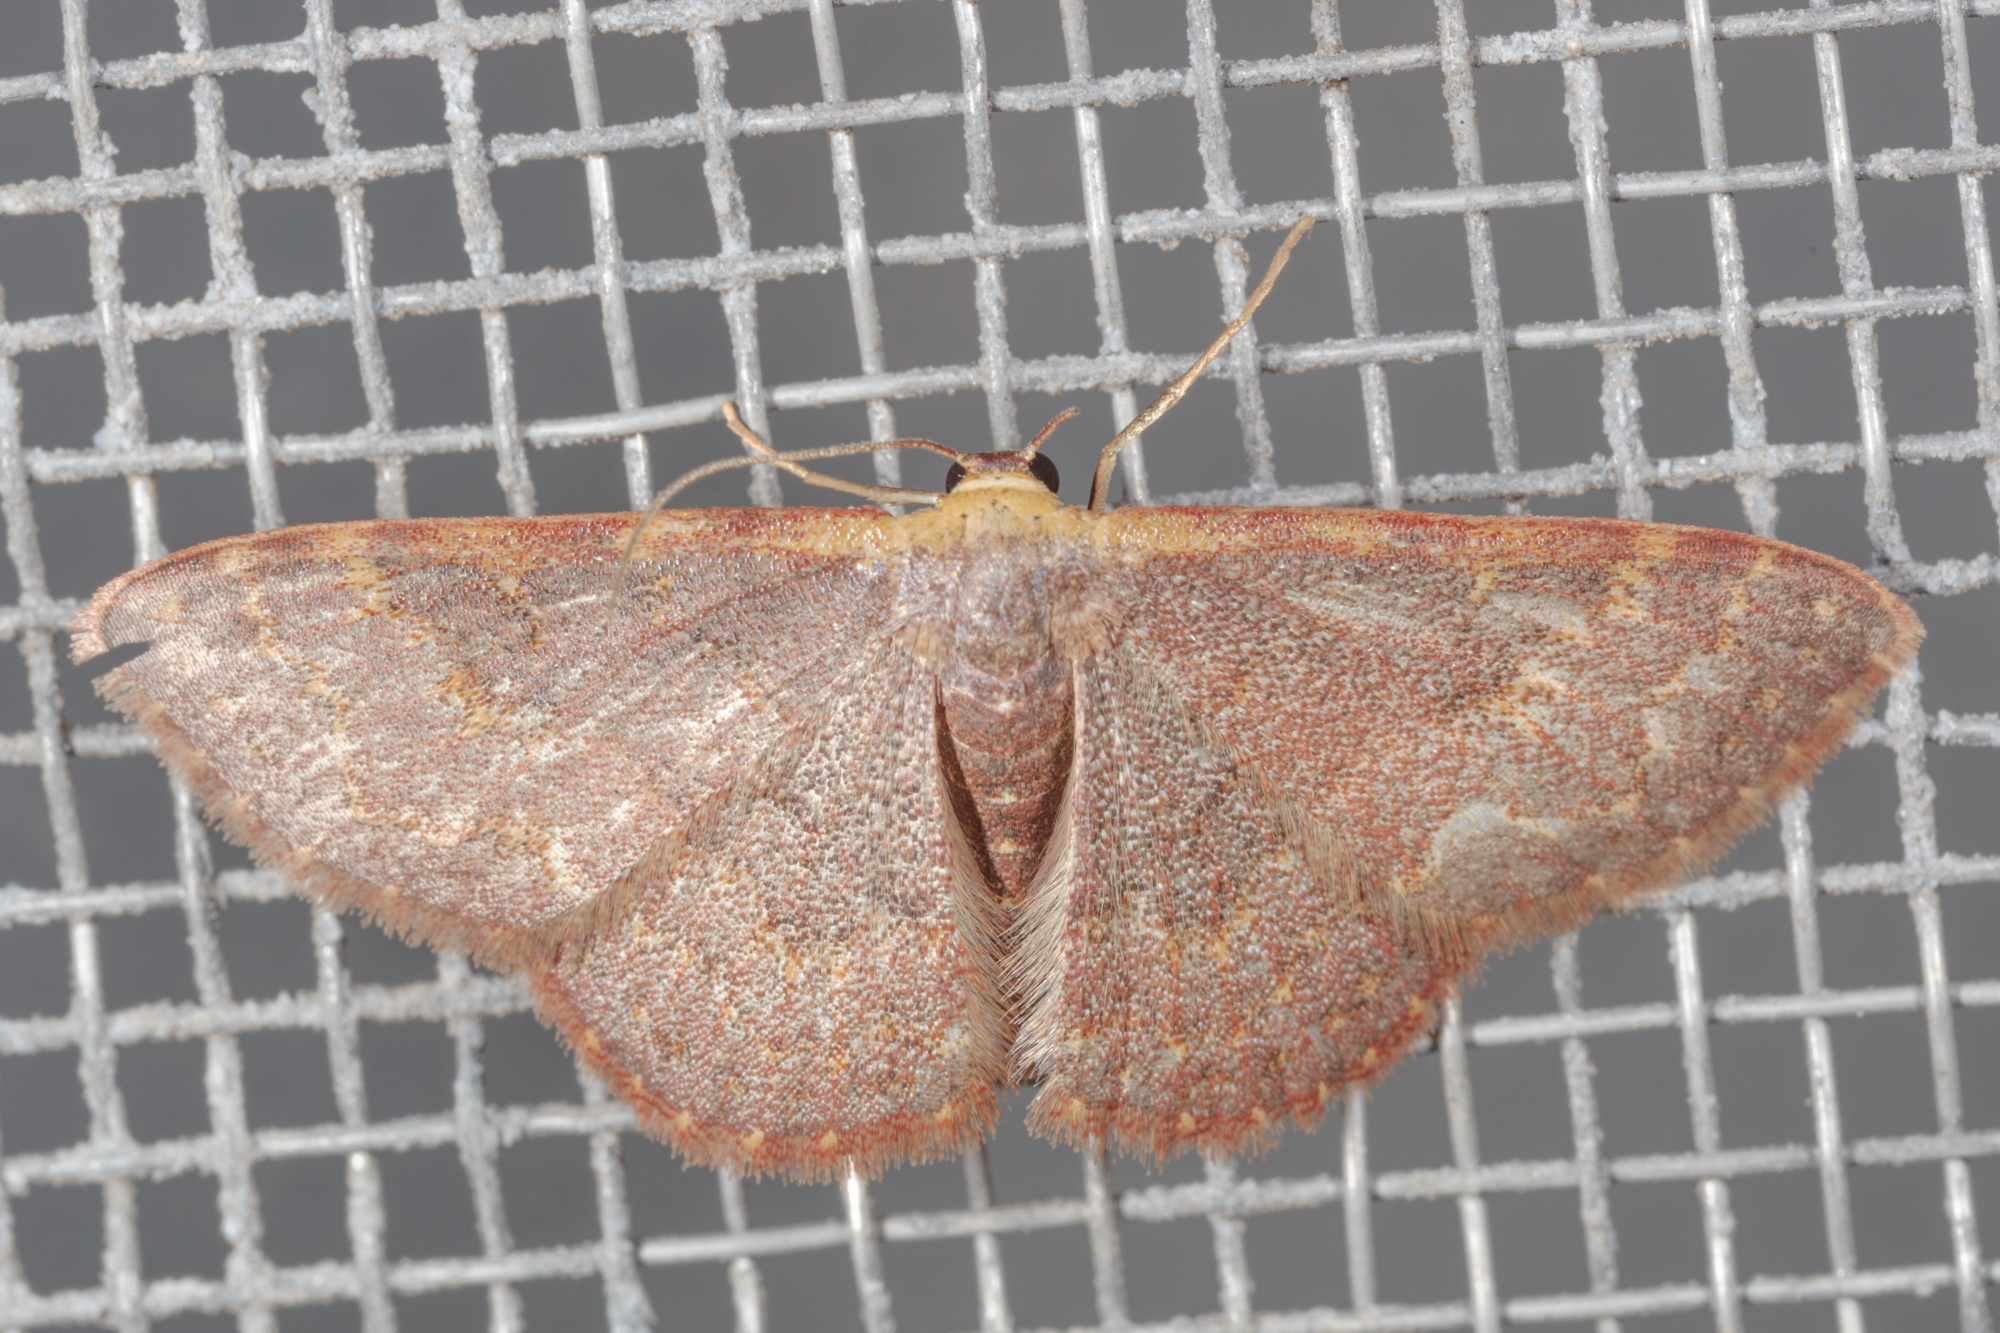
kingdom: Animalia
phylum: Arthropoda
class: Insecta
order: Lepidoptera
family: Geometridae
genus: Leptostales
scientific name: Leptostales pannaria
